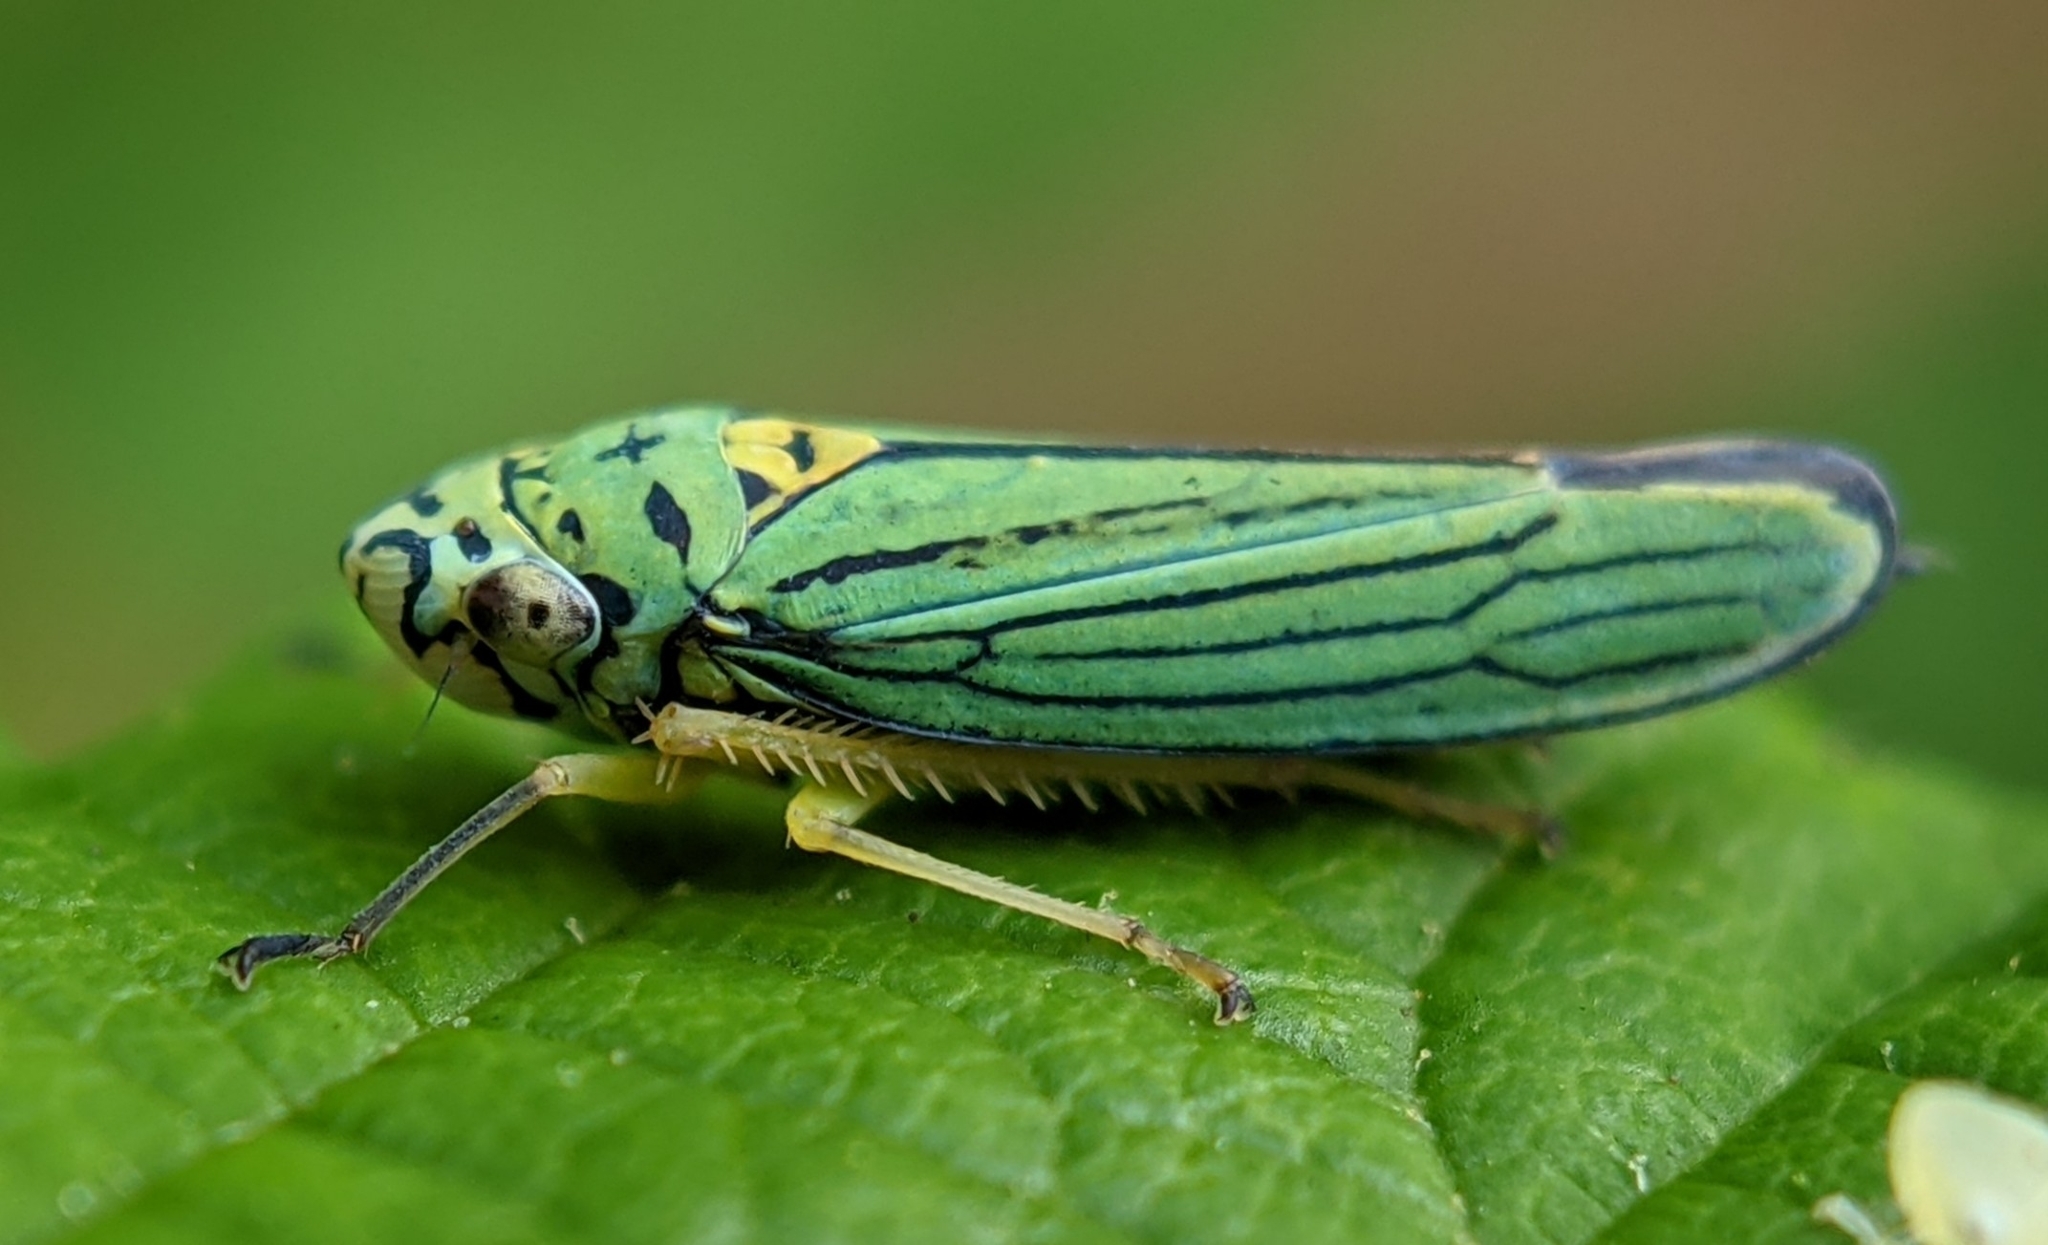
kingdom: Animalia
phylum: Arthropoda
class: Insecta
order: Hemiptera
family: Cicadellidae
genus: Graphocephala
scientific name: Graphocephala atropunctata
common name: Blue-green sharpshooter
